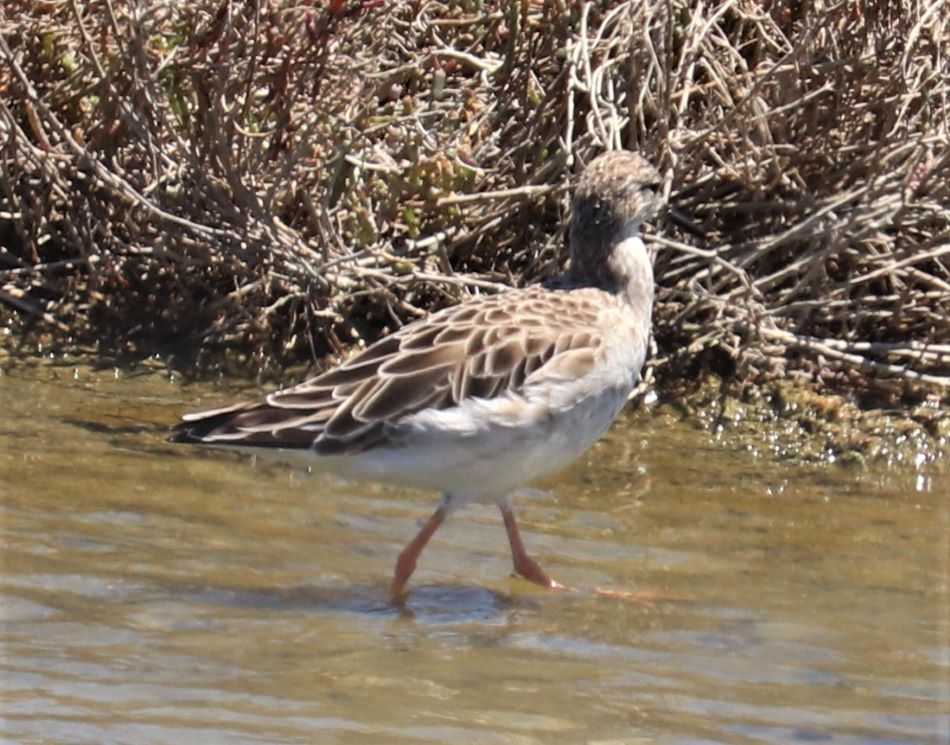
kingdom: Animalia
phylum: Chordata
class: Aves
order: Charadriiformes
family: Scolopacidae
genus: Calidris
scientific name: Calidris pugnax
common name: Ruff
